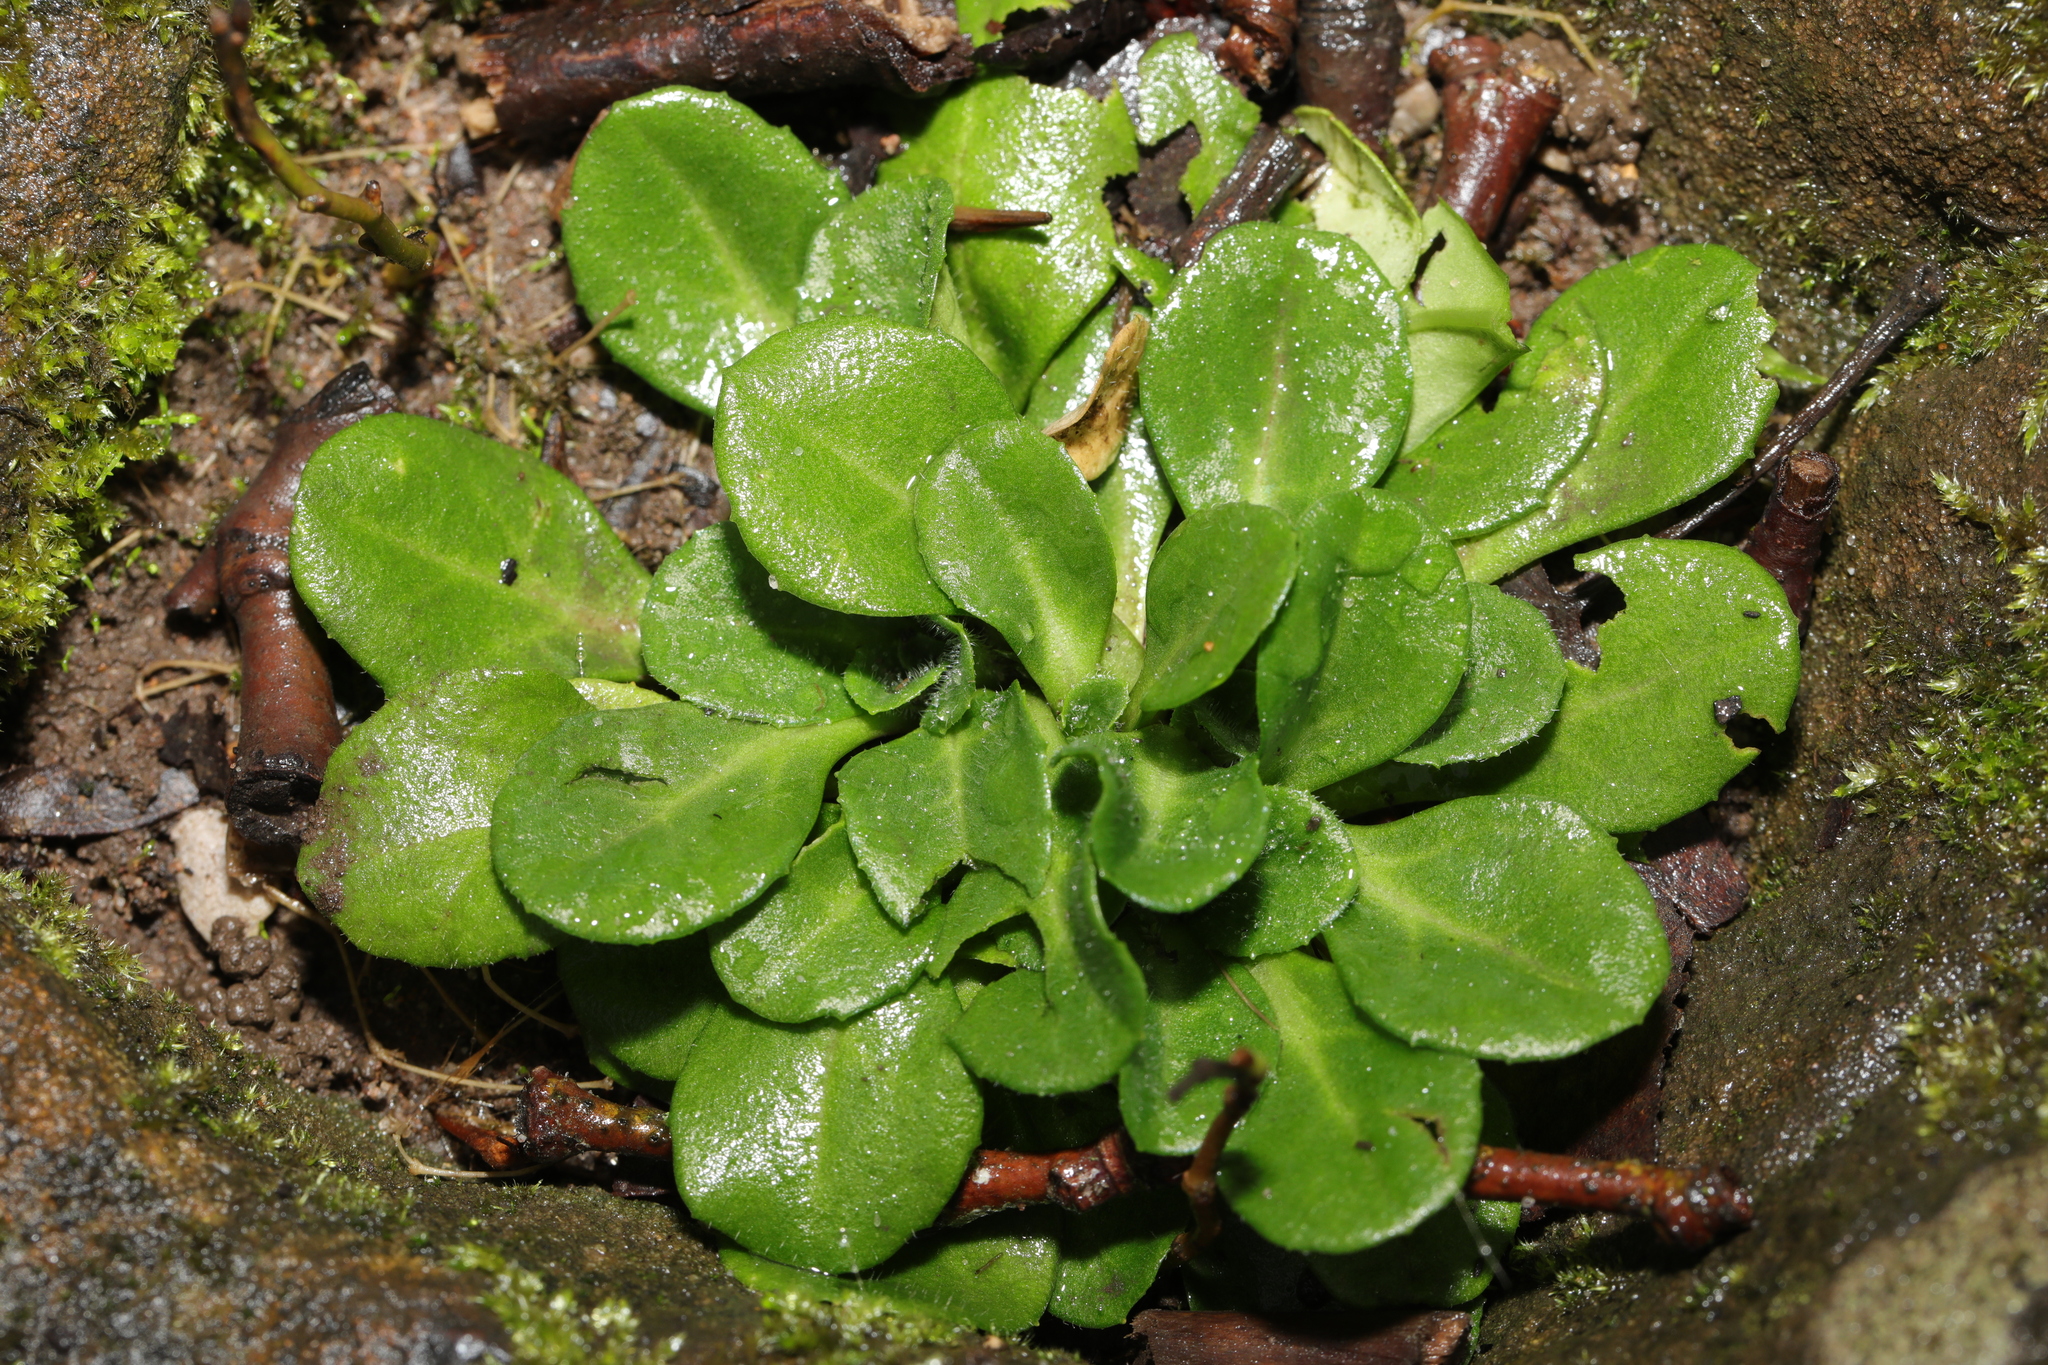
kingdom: Plantae
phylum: Tracheophyta
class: Magnoliopsida
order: Asterales
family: Asteraceae
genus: Bellis
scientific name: Bellis perennis
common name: Lawndaisy
